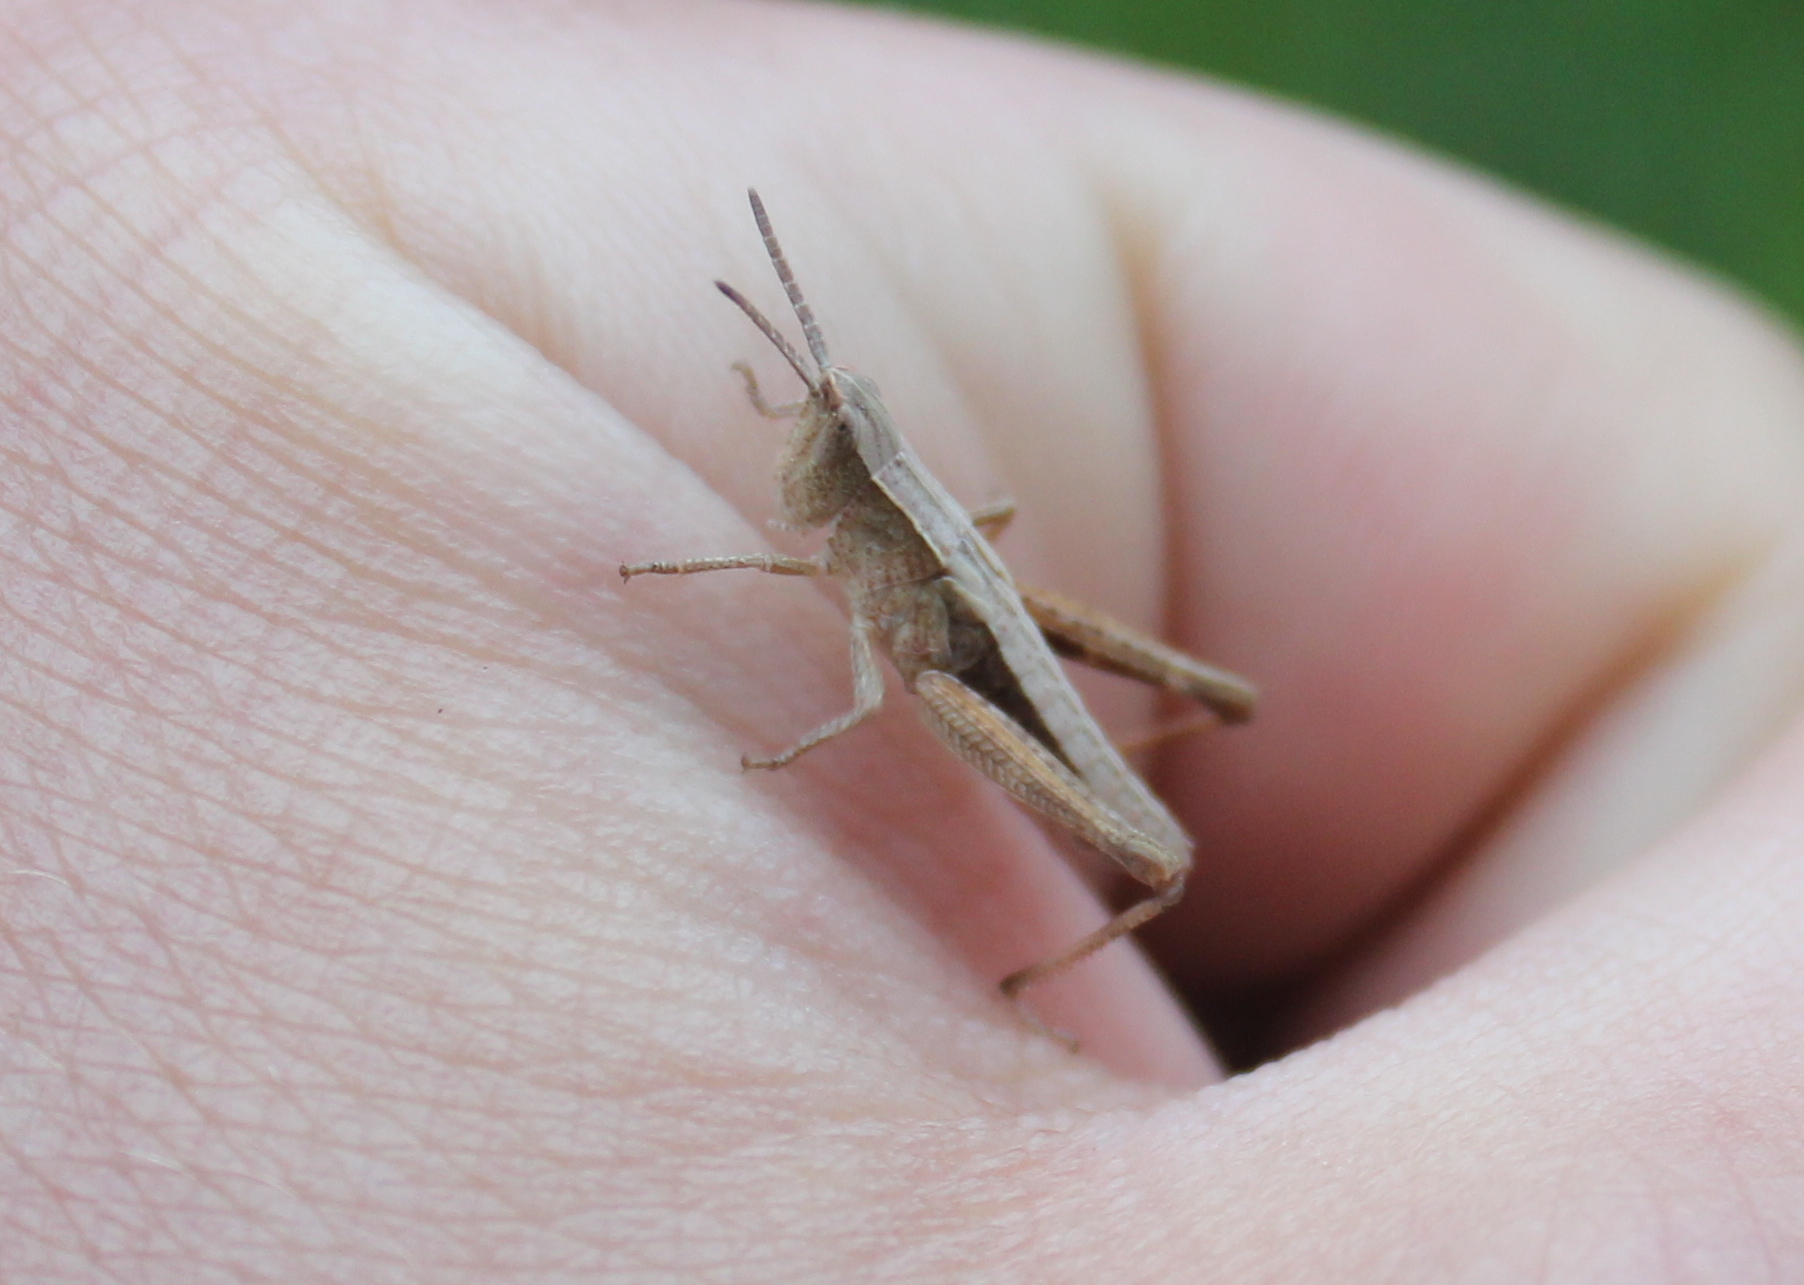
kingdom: Animalia
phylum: Arthropoda
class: Insecta
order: Orthoptera
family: Acrididae
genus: Chloealtis
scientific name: Chloealtis conspersa
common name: Sprinkled broad-winged grasshopper
